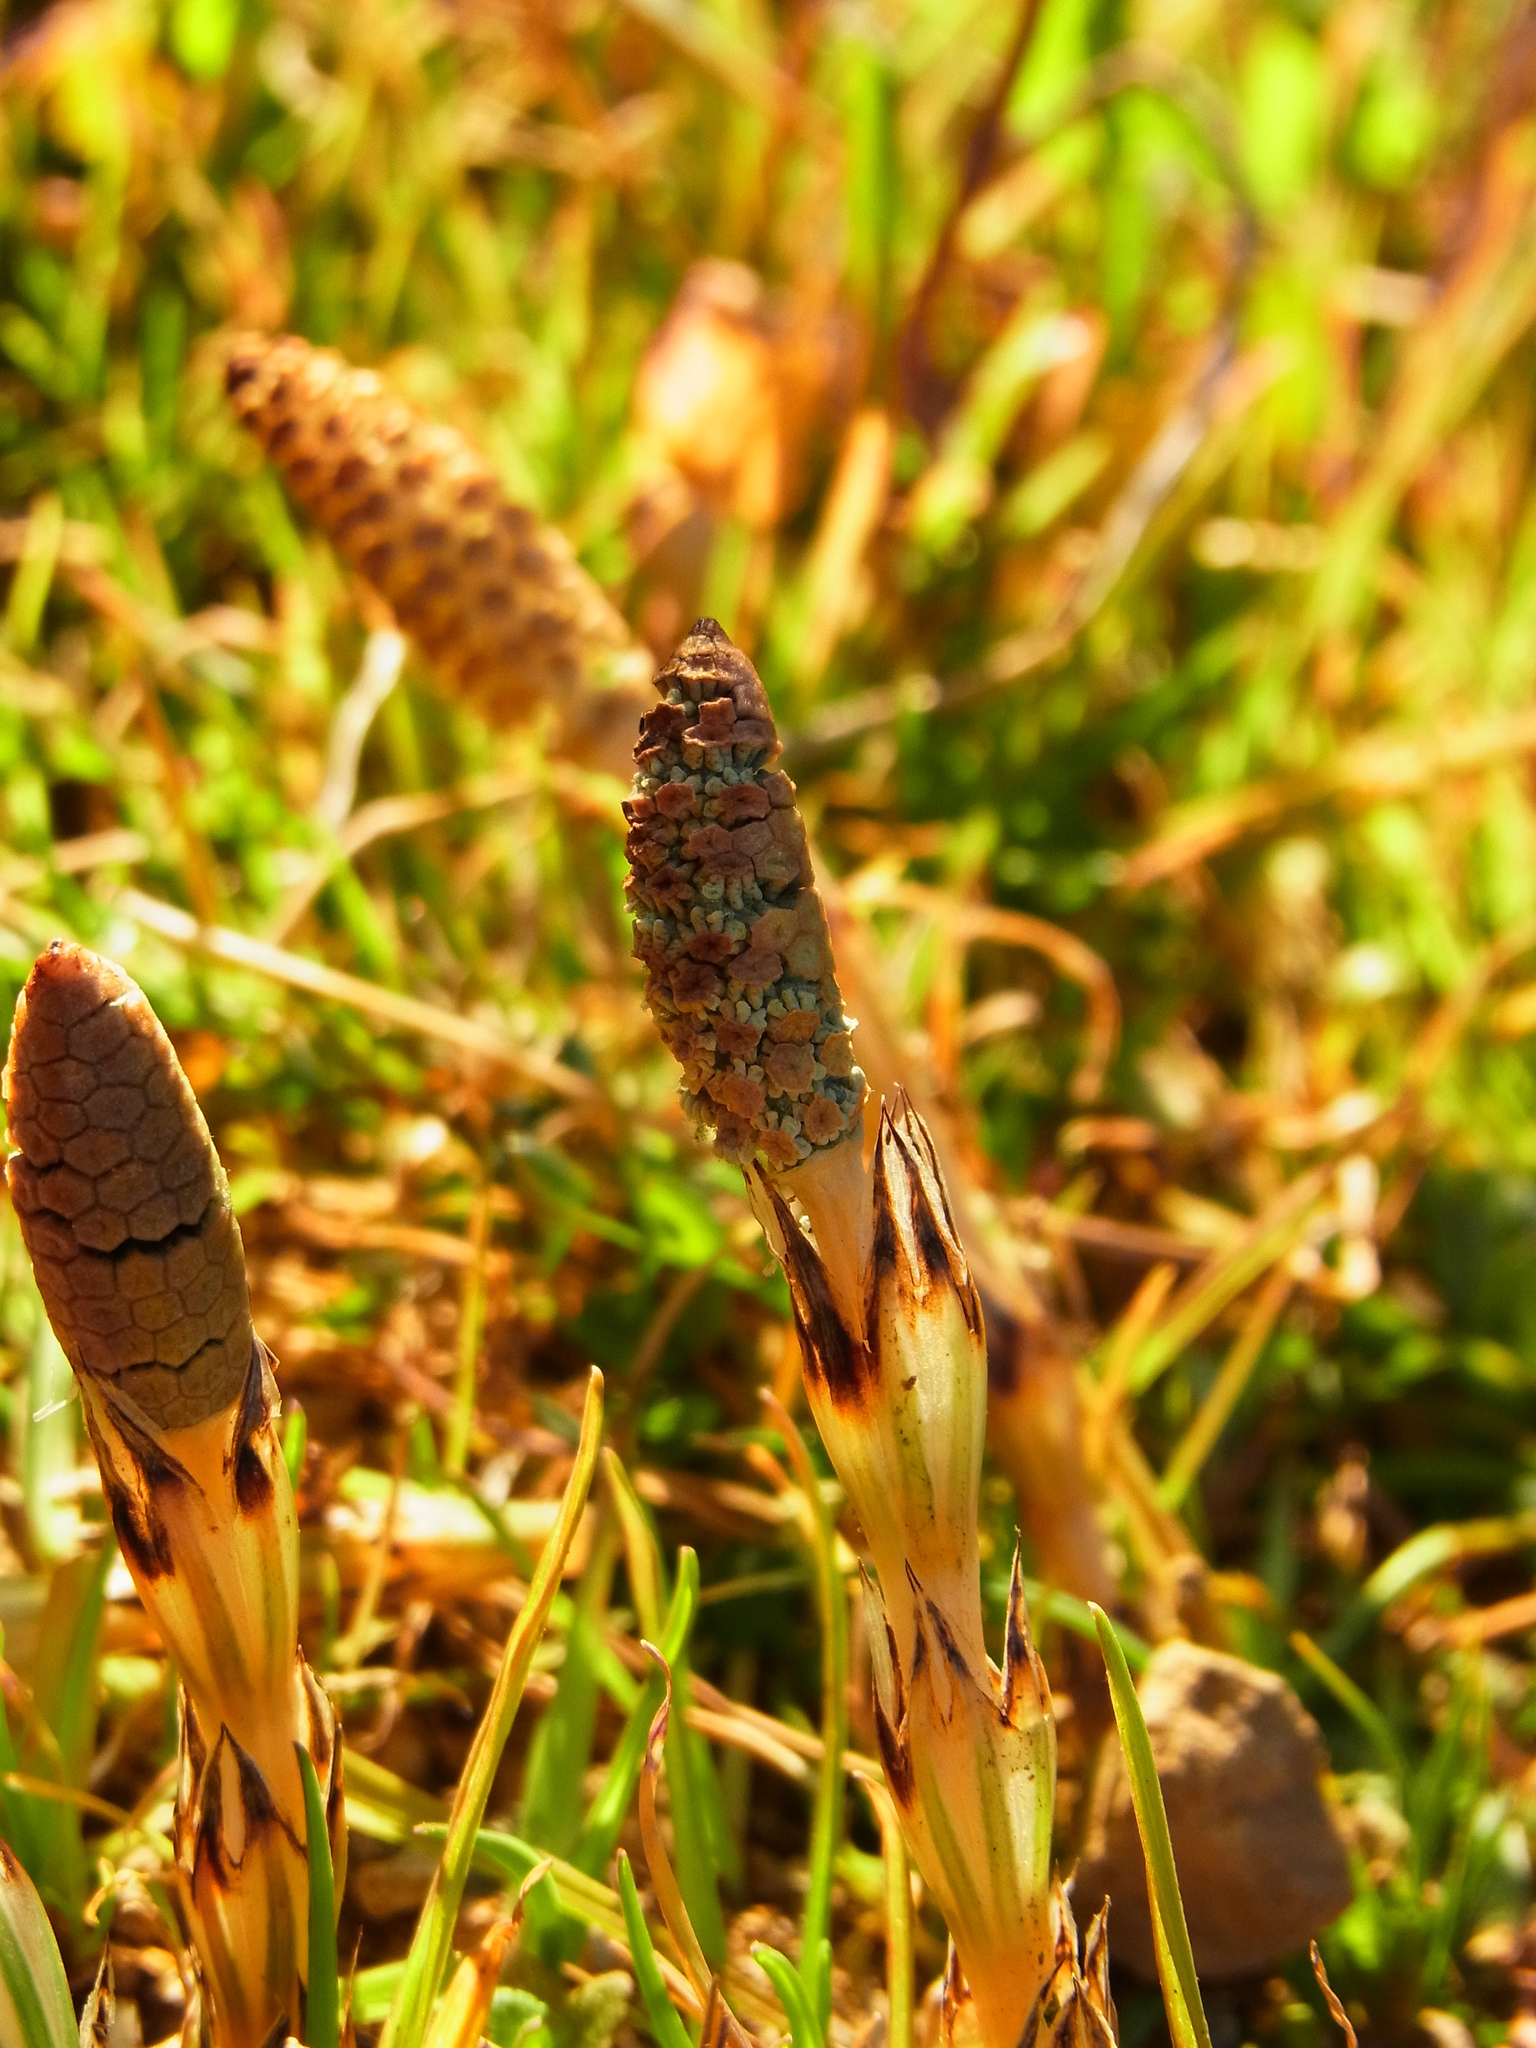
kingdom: Plantae
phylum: Tracheophyta
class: Polypodiopsida
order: Equisetales
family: Equisetaceae
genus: Equisetum
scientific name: Equisetum arvense
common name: Field horsetail
